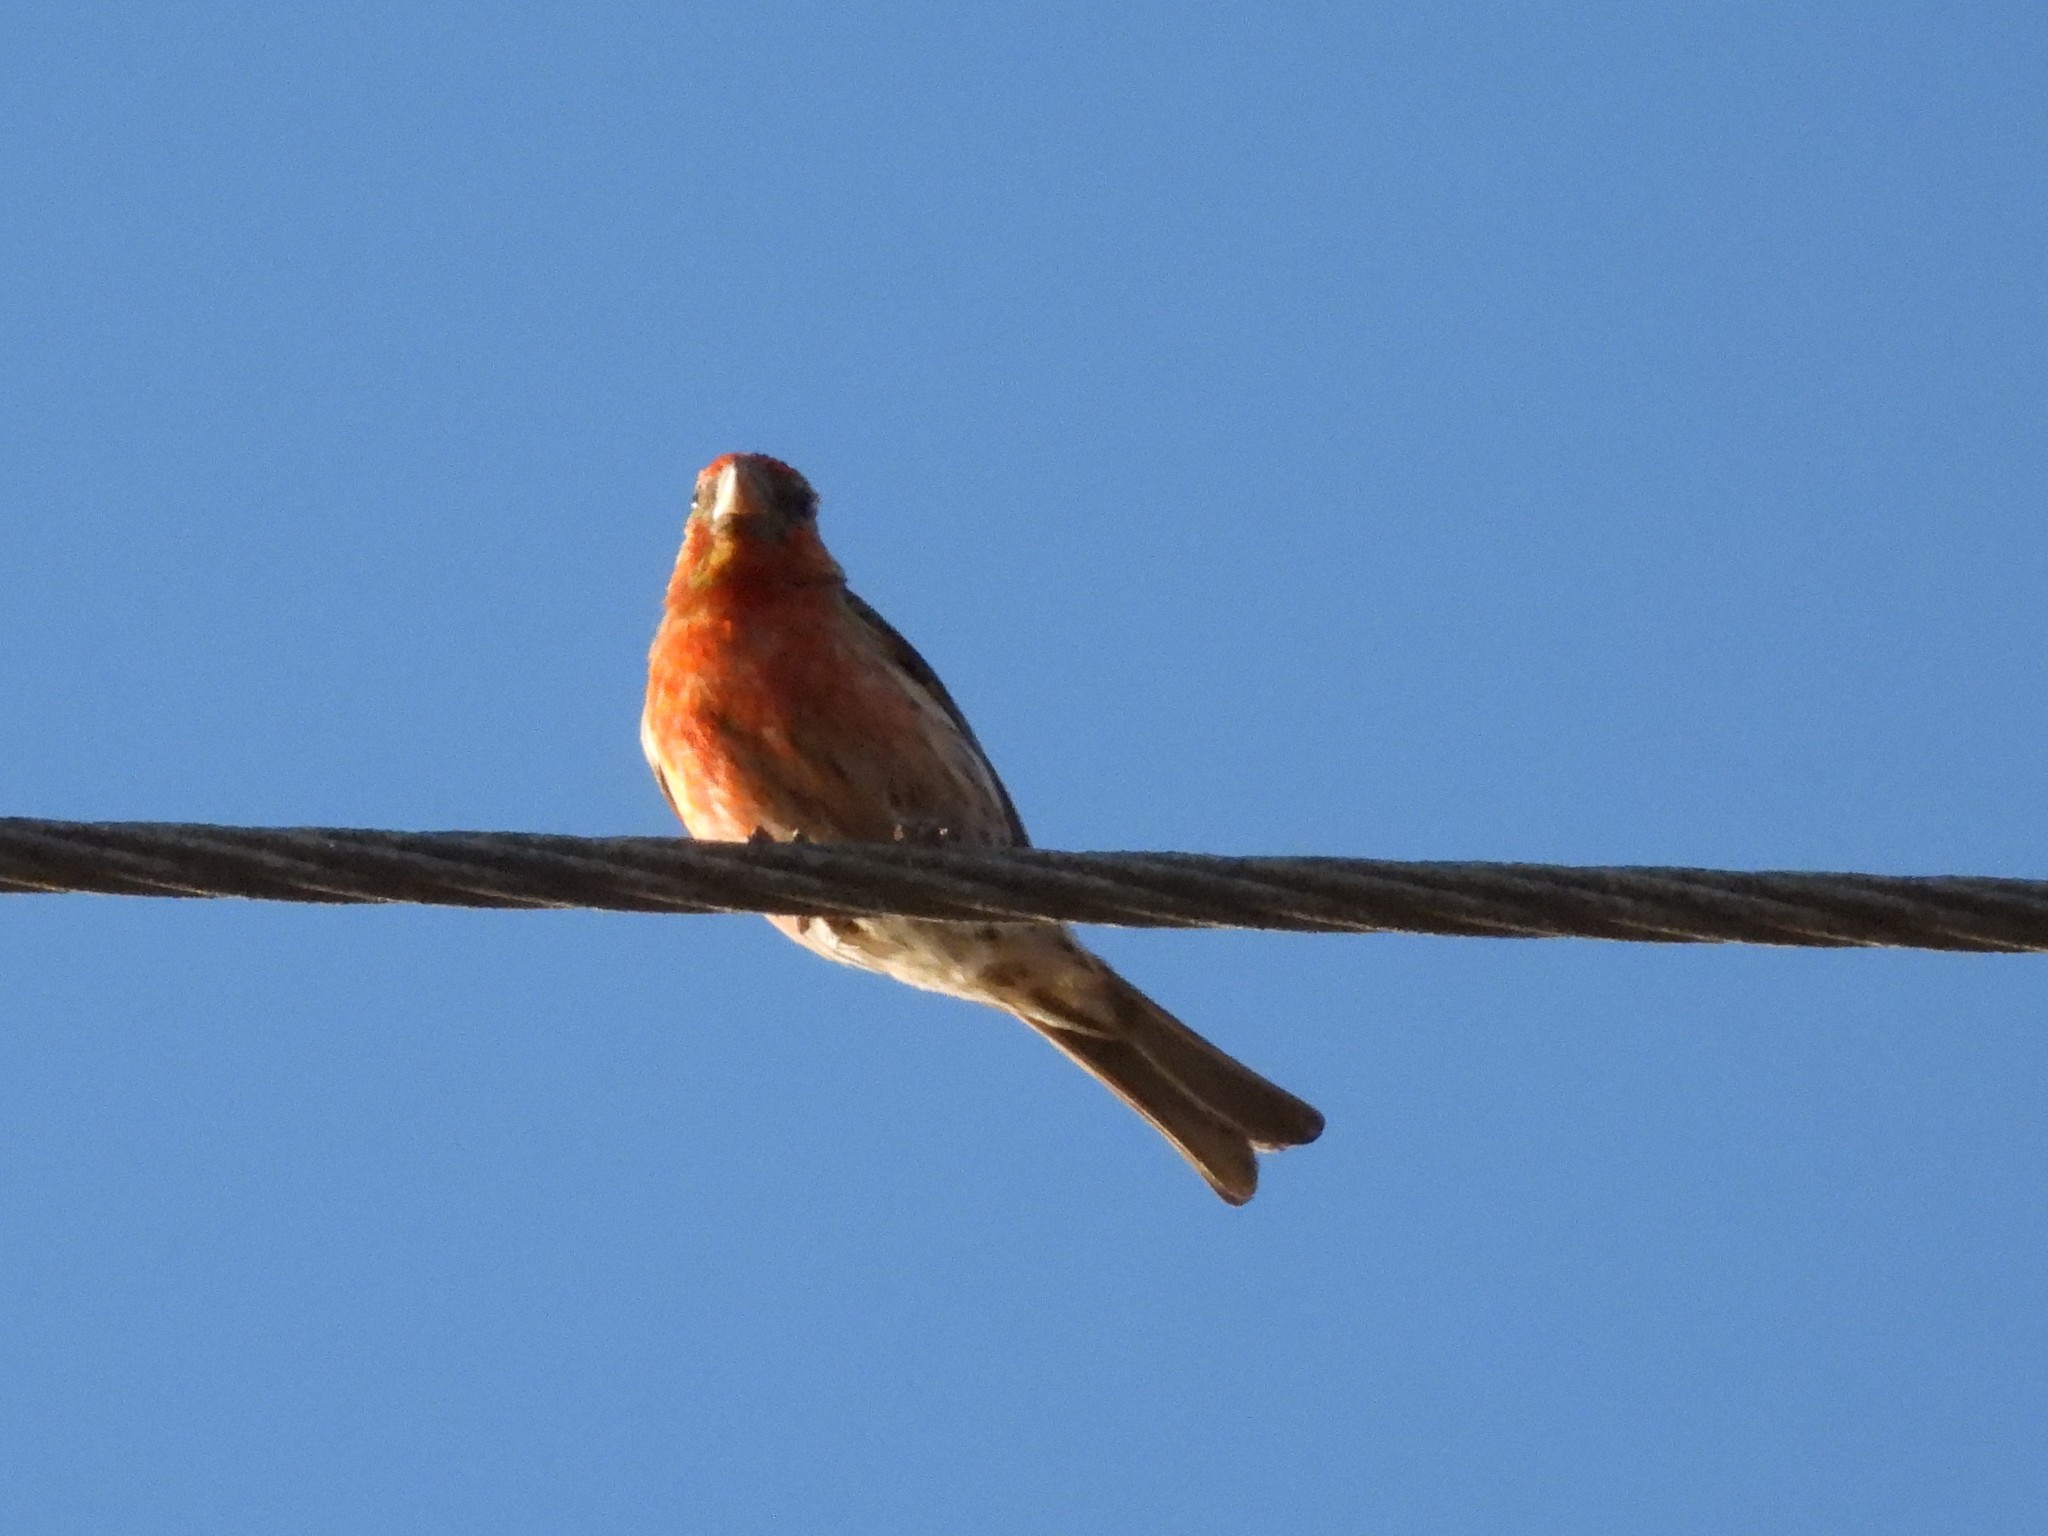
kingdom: Animalia
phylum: Chordata
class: Aves
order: Passeriformes
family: Fringillidae
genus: Haemorhous
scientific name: Haemorhous mexicanus
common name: House finch
